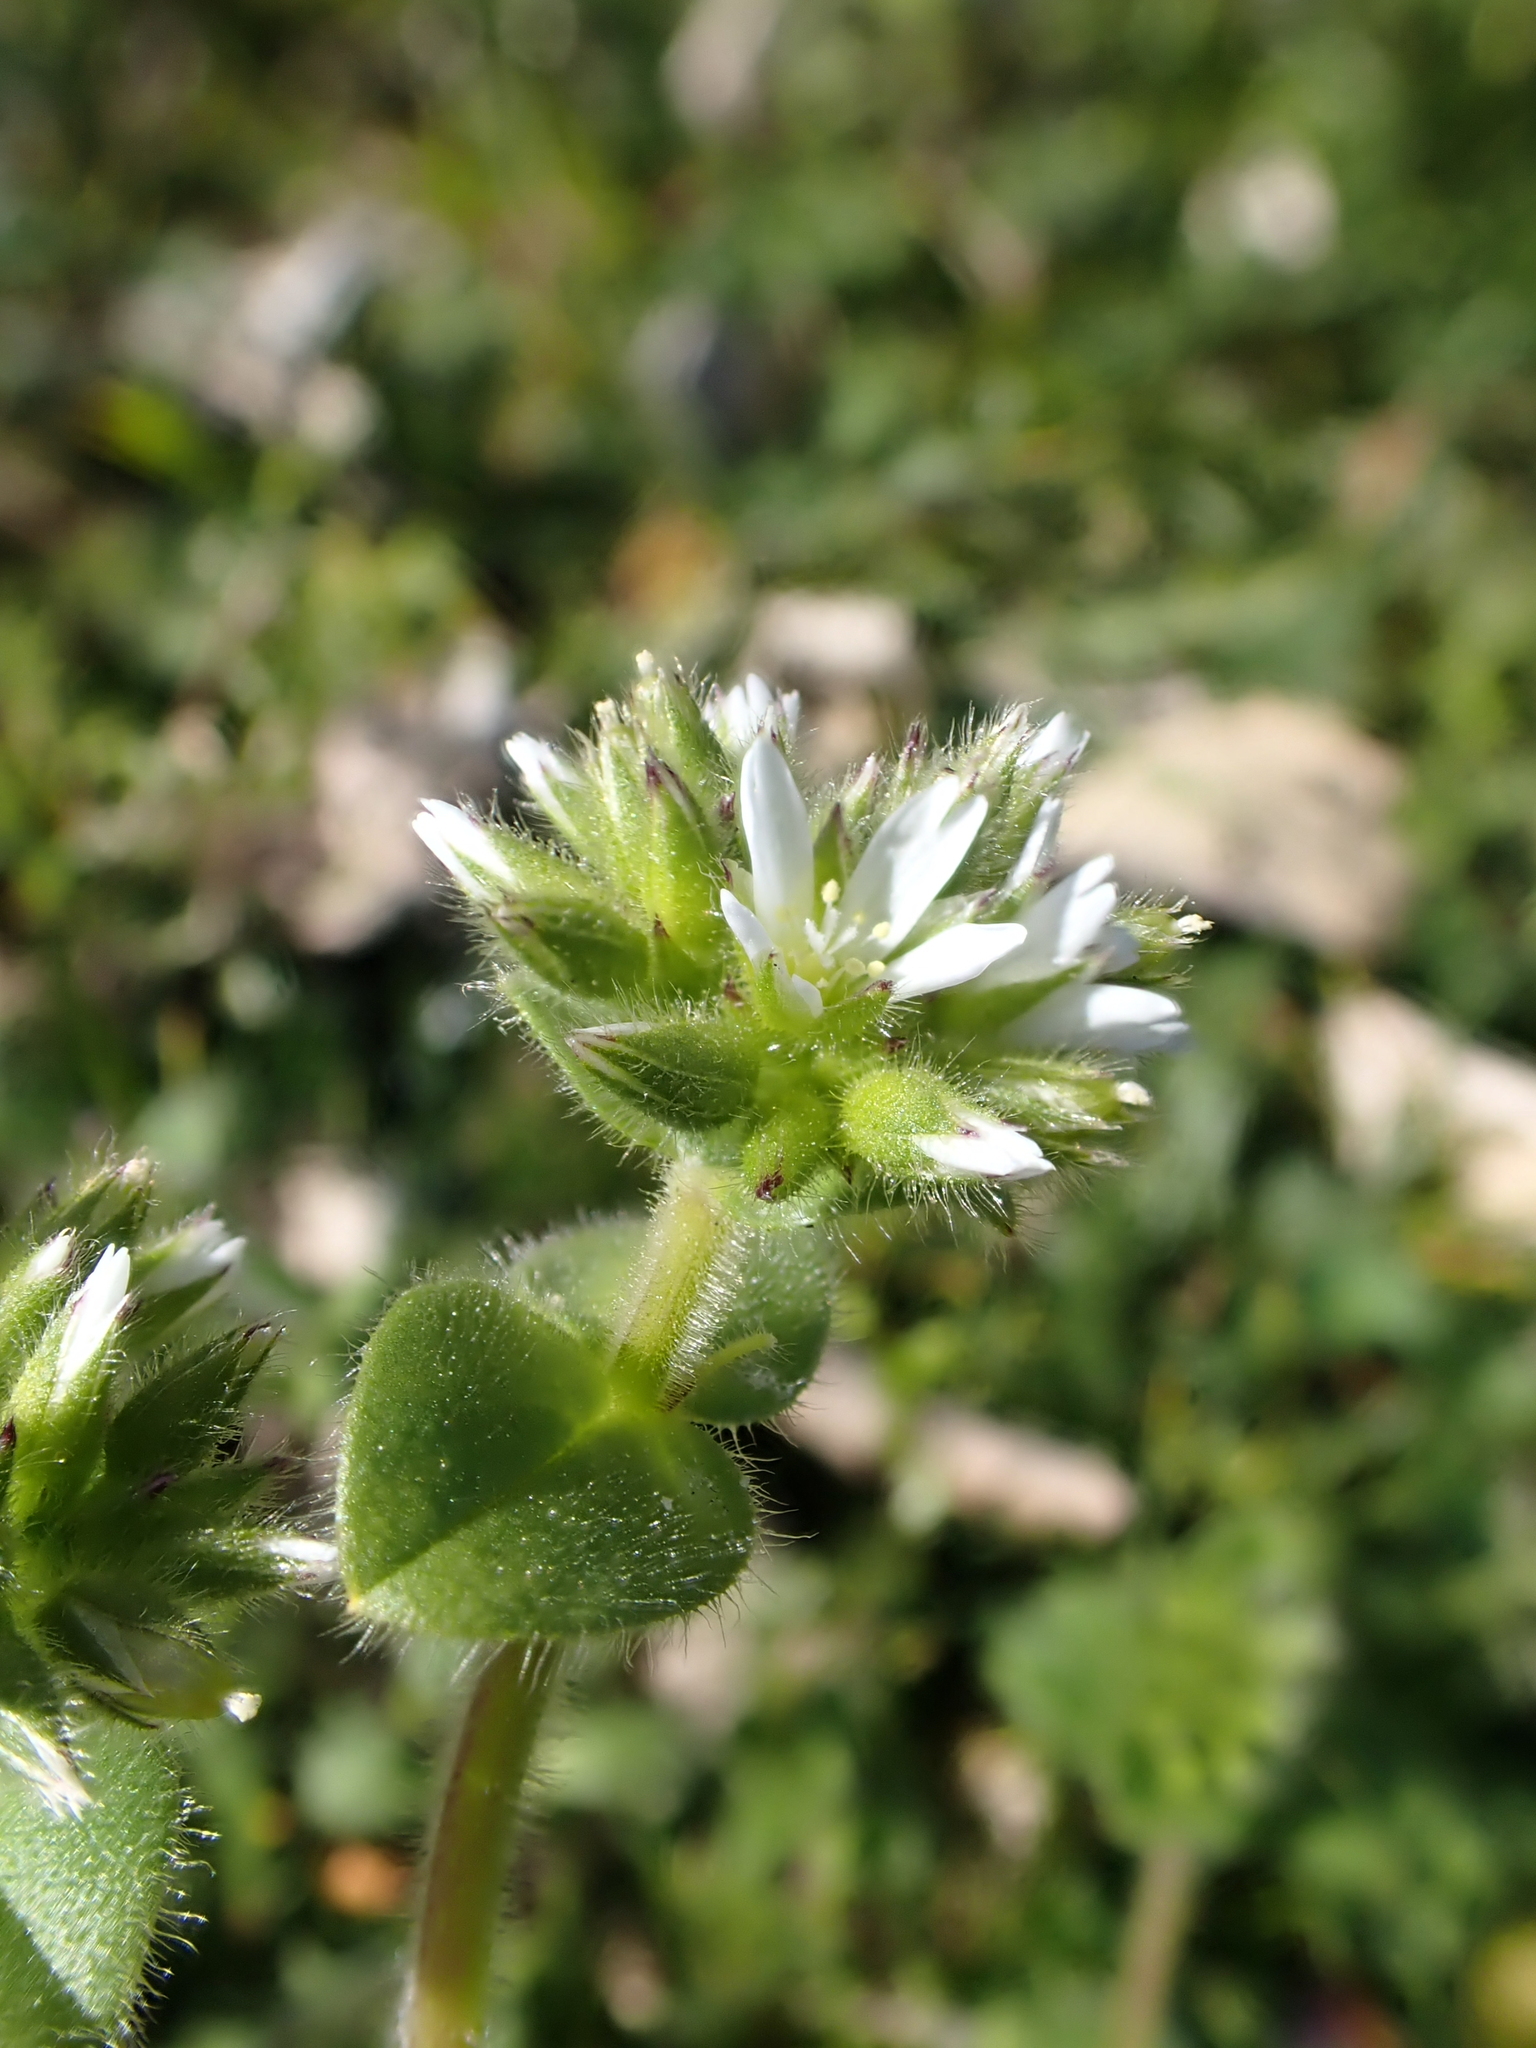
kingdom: Plantae
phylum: Tracheophyta
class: Magnoliopsida
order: Caryophyllales
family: Caryophyllaceae
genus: Cerastium
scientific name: Cerastium glomeratum
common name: Sticky chickweed
